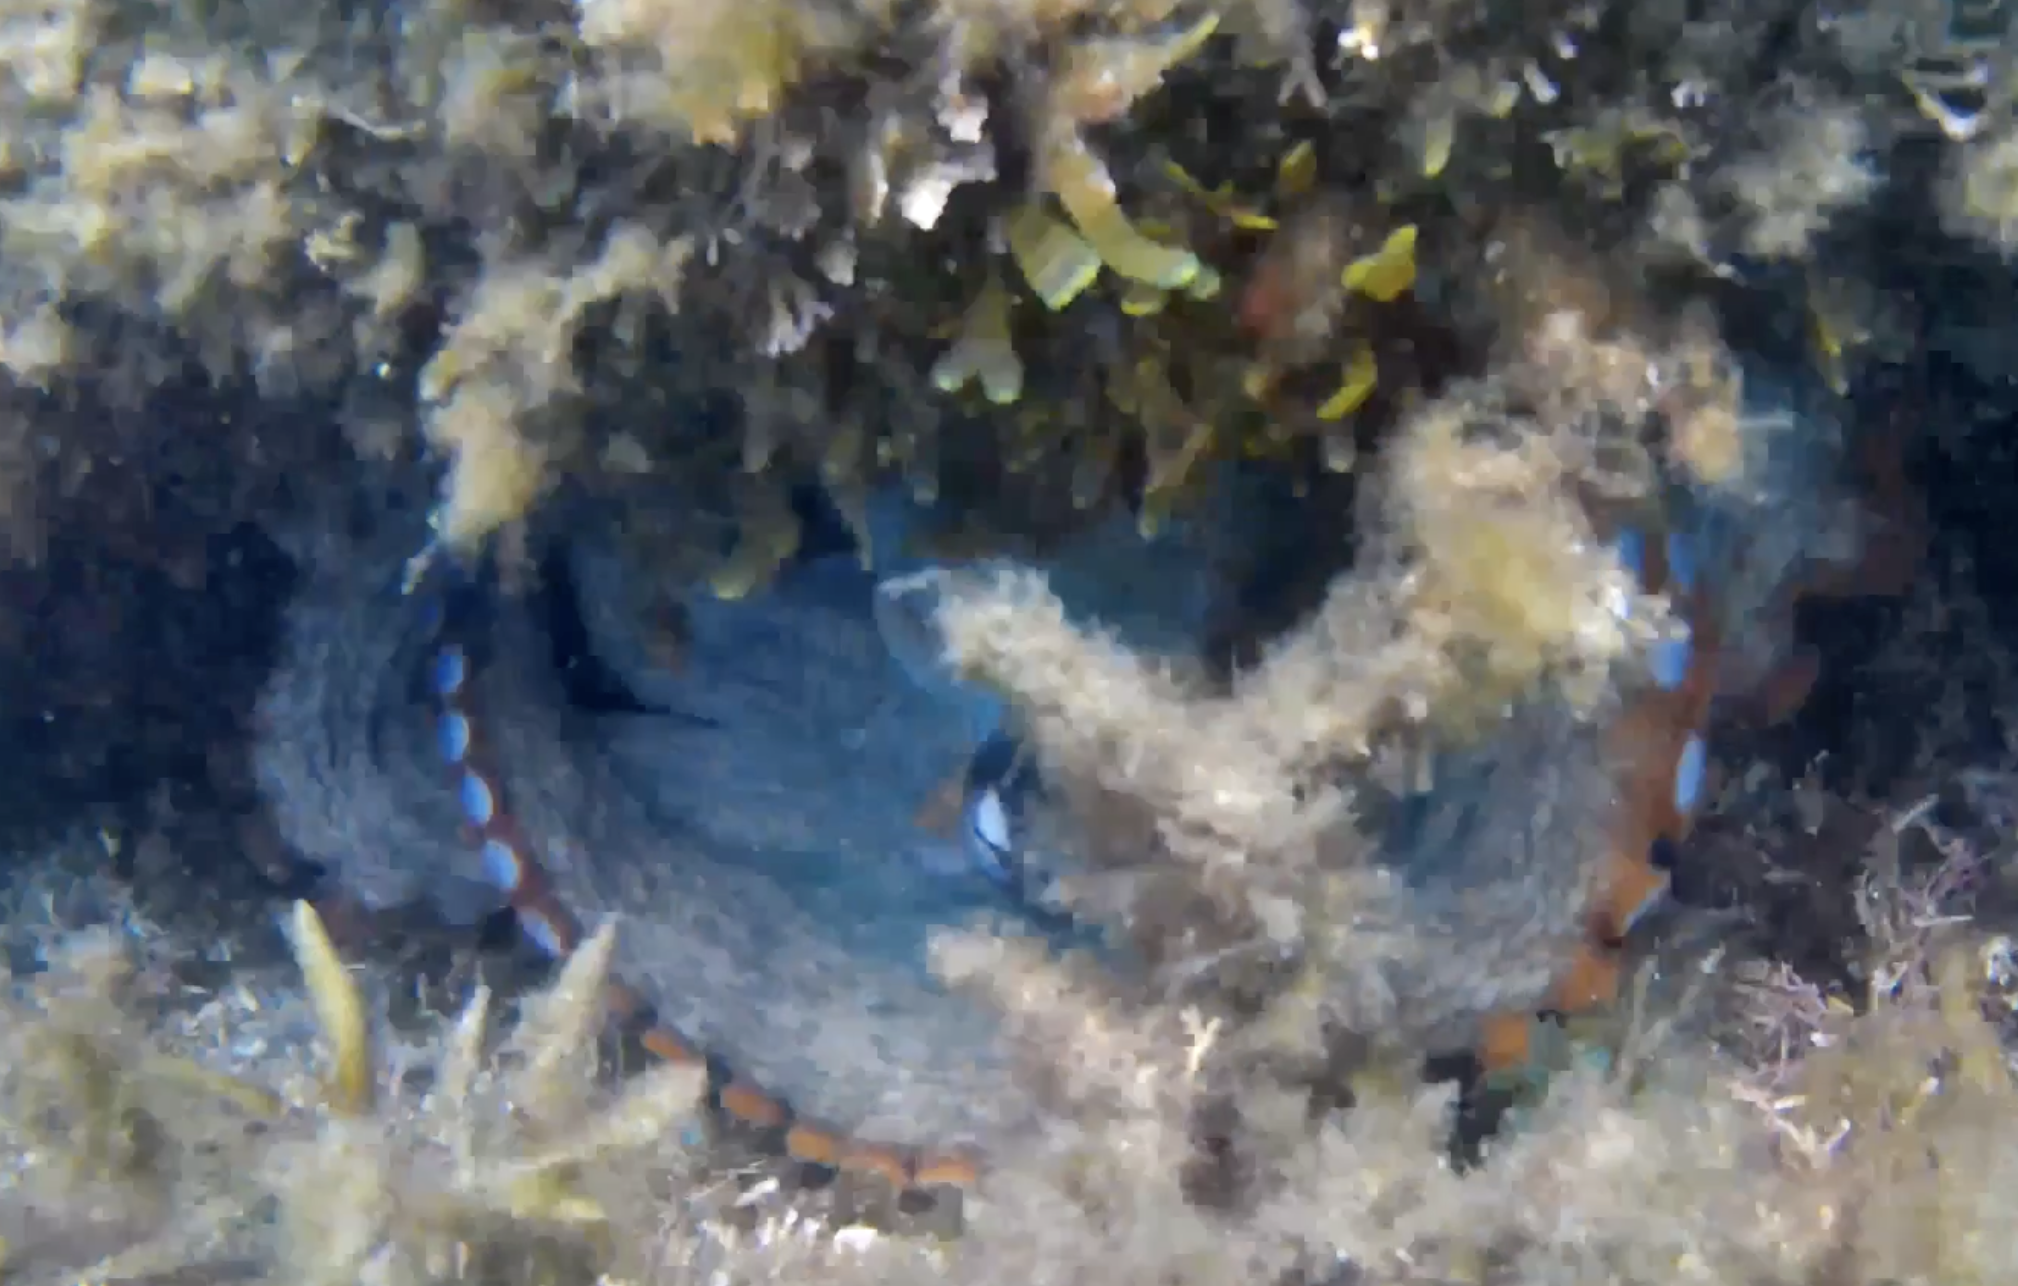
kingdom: Animalia
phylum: Mollusca
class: Cephalopoda
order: Octopoda
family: Octopodidae
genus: Octopus
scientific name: Octopus tetricus
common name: Sydney octopus
